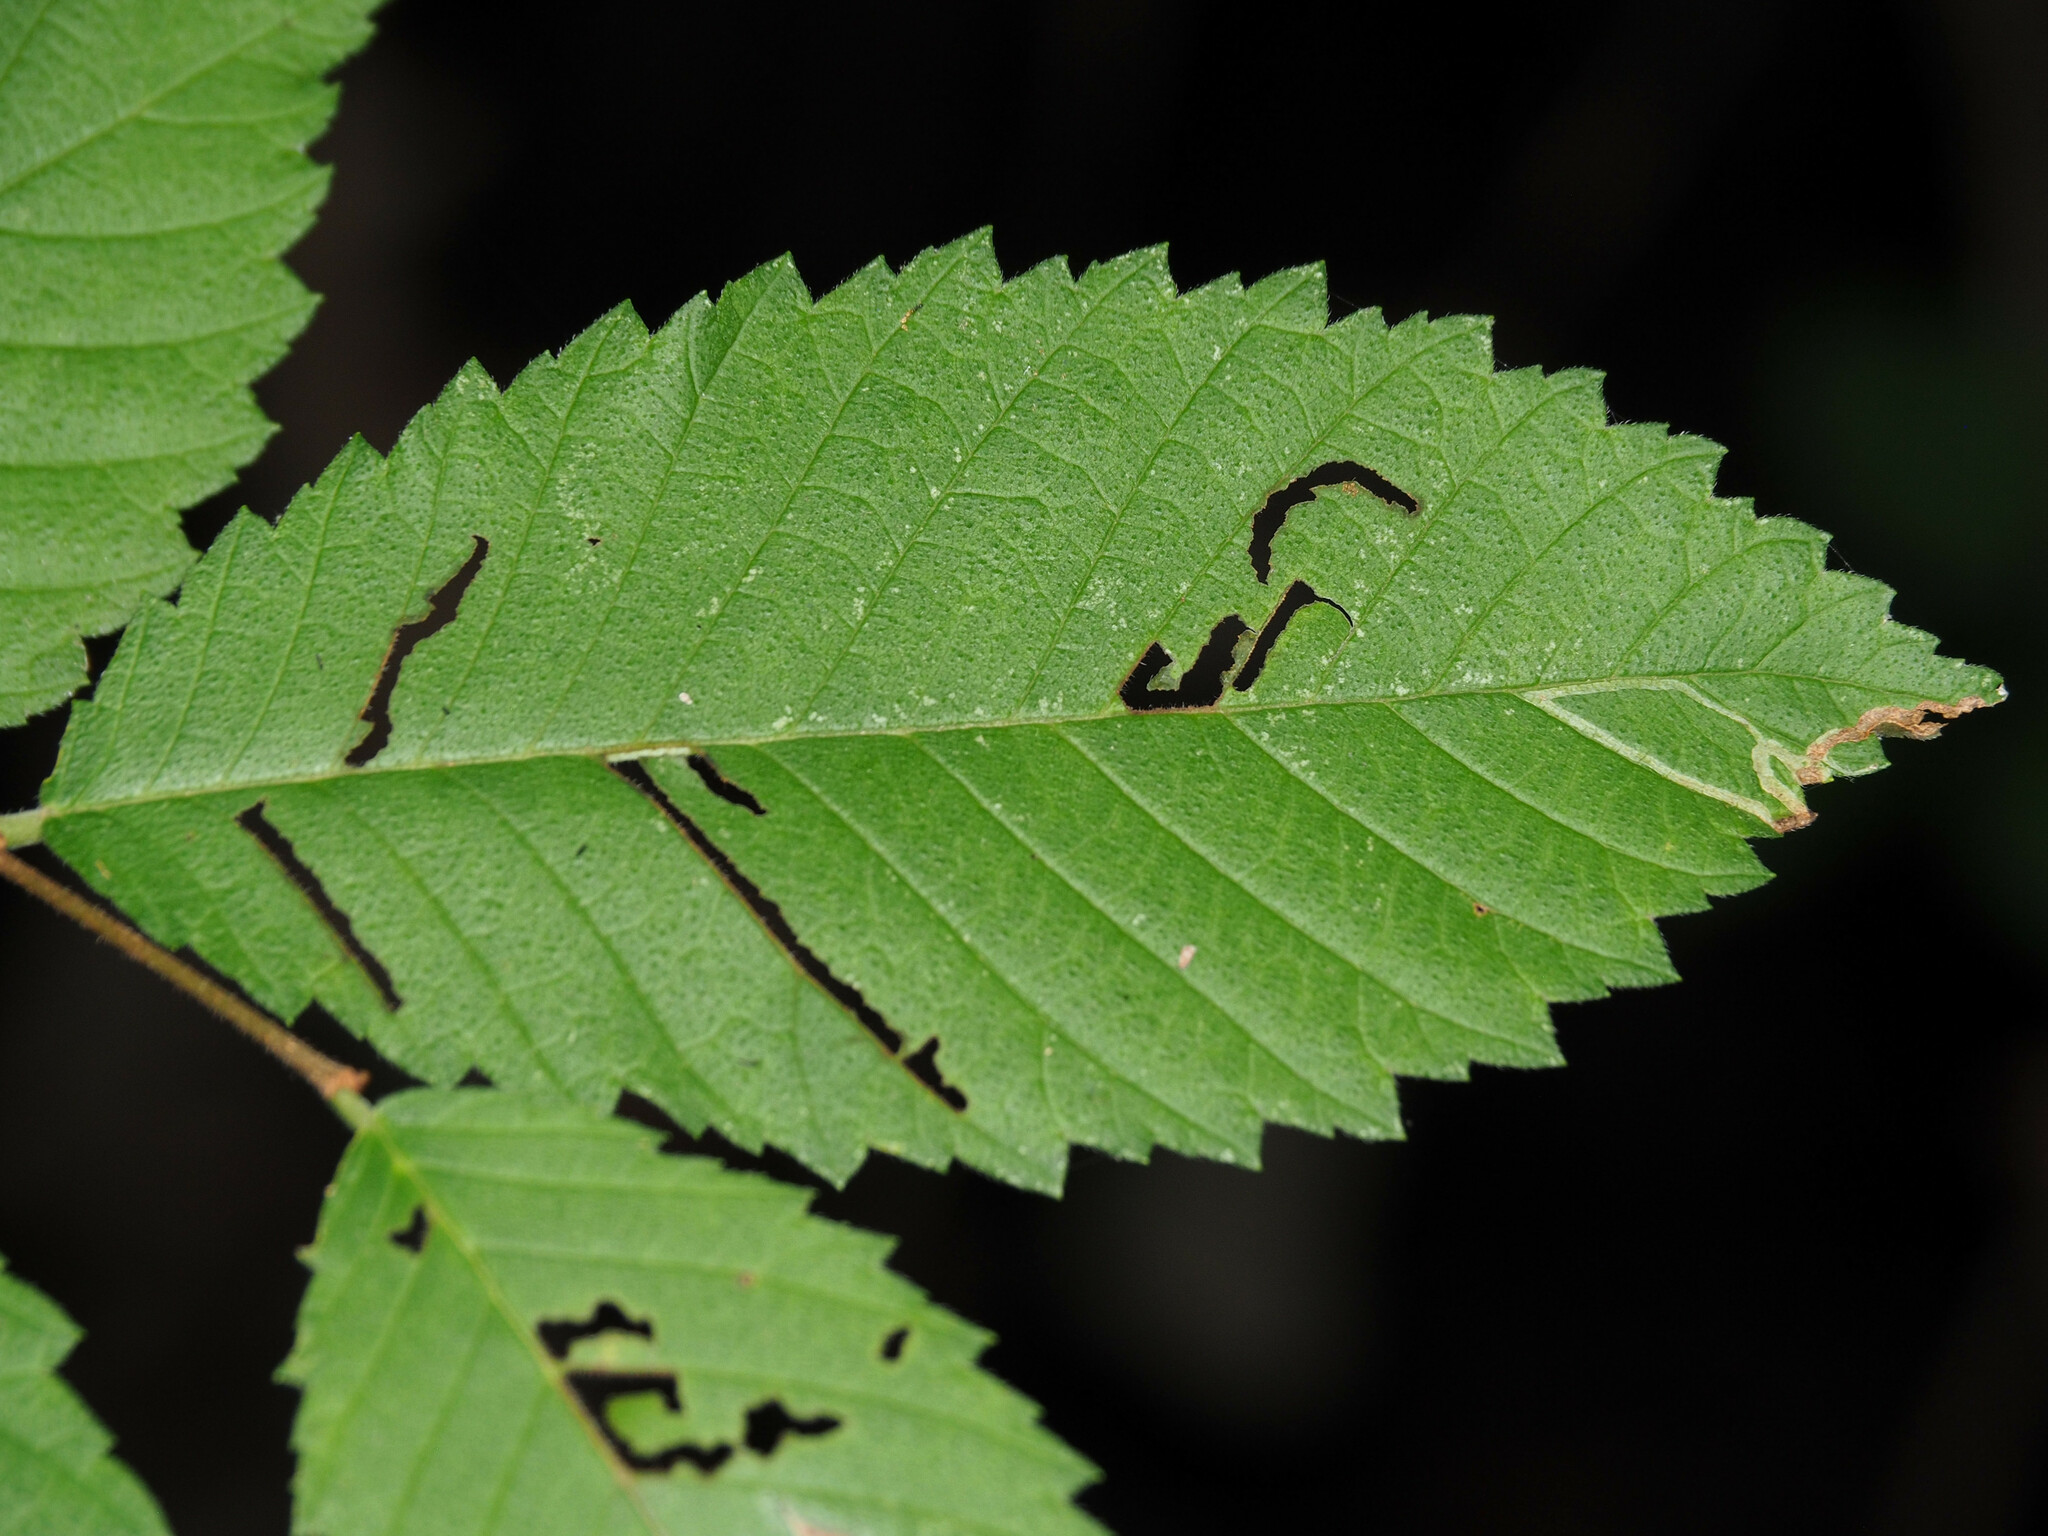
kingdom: Animalia
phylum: Arthropoda
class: Insecta
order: Diptera
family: Agromyzidae
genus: Agromyza
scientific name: Agromyza aristata
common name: Elm agromyzid leafminer
